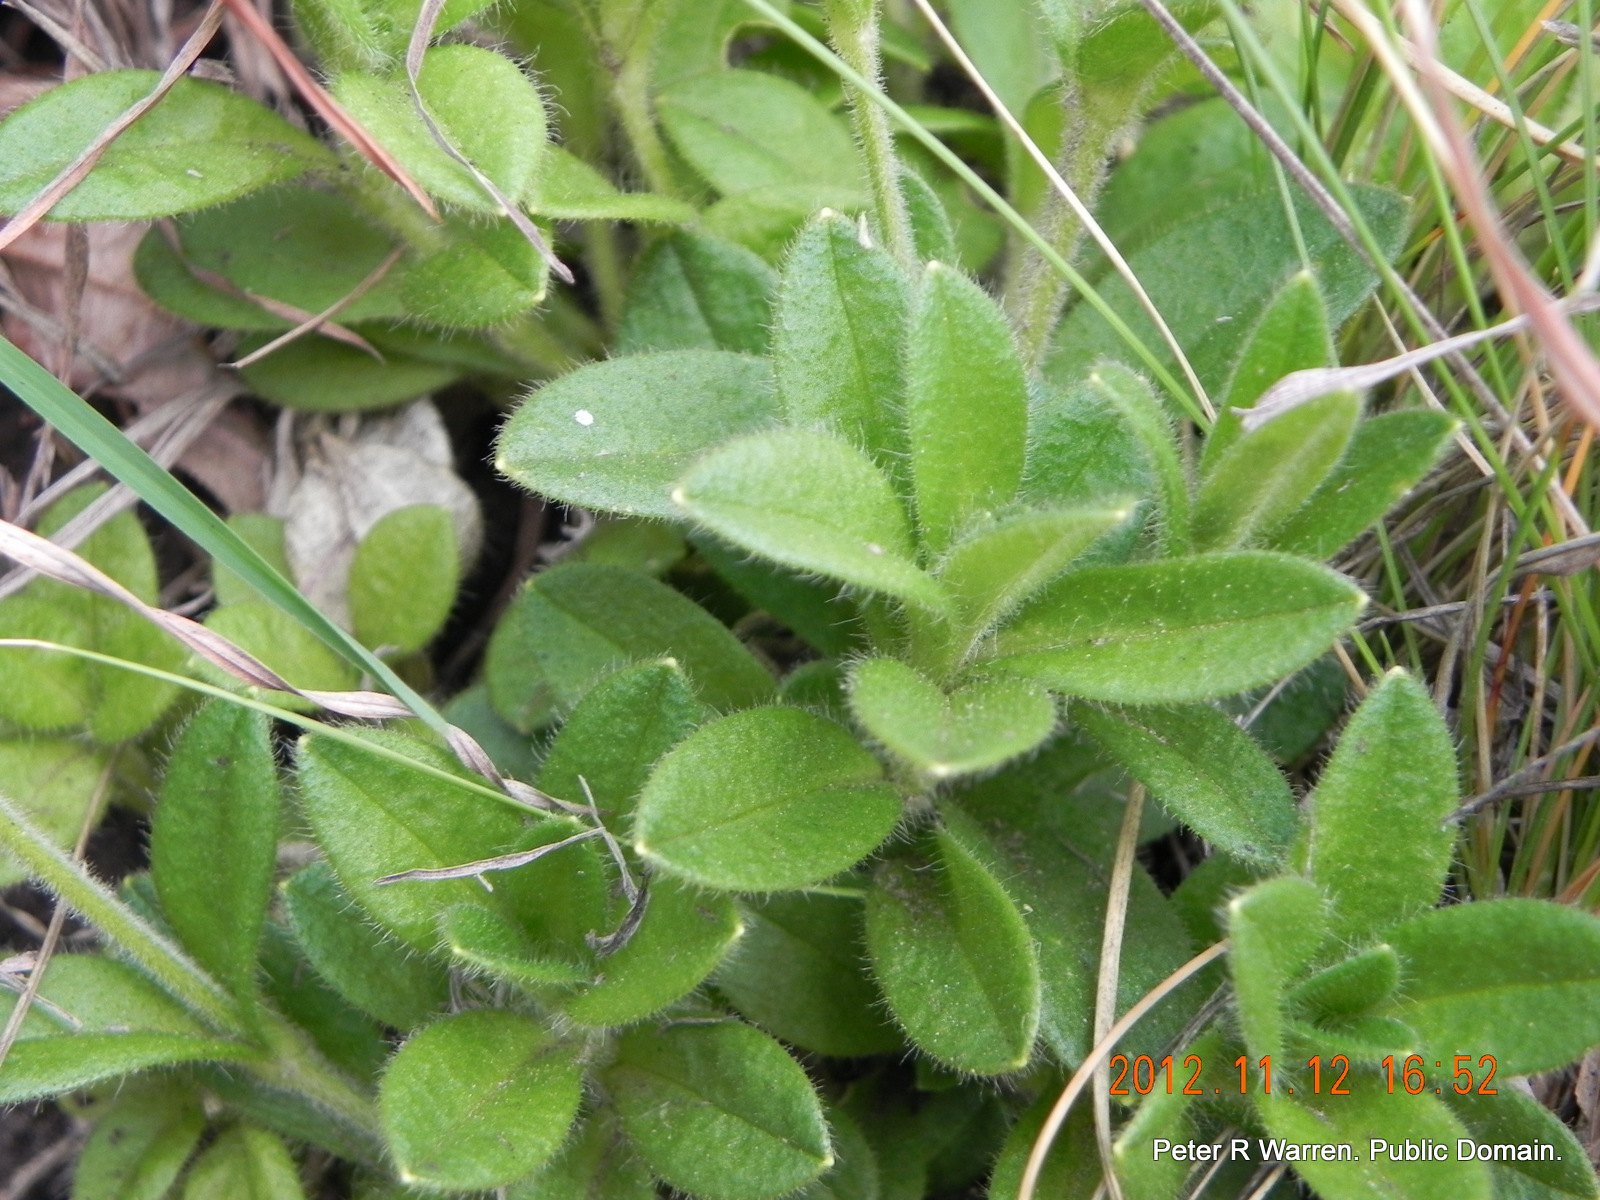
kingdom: Plantae
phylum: Tracheophyta
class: Magnoliopsida
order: Asterales
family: Asteraceae
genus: Afroaster
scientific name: Afroaster pleiocephalus
